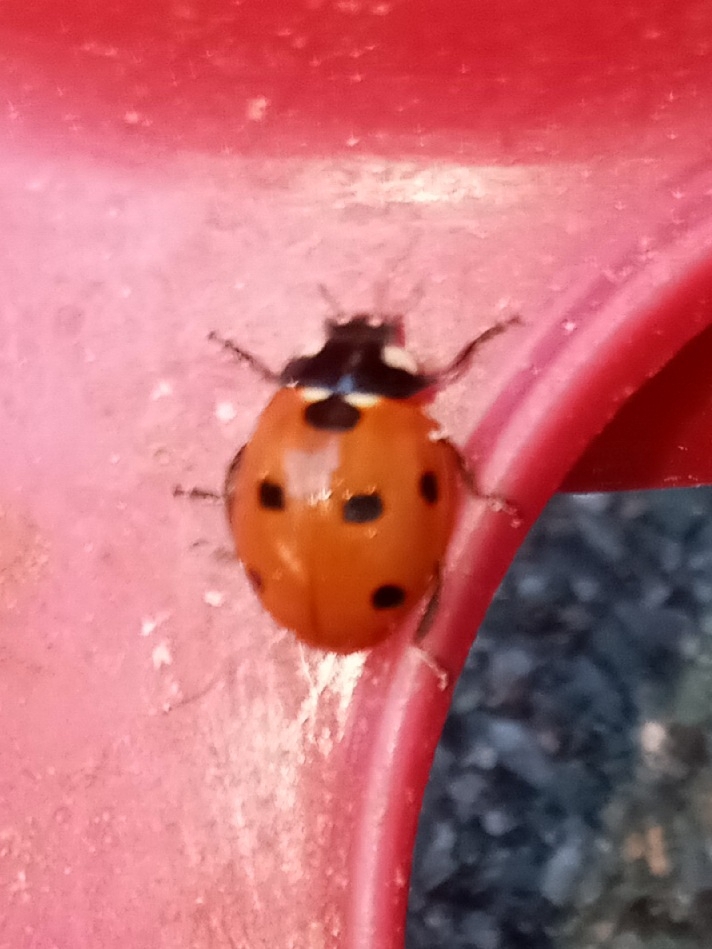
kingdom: Animalia
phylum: Arthropoda
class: Insecta
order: Coleoptera
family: Coccinellidae
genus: Coccinella
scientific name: Coccinella septempunctata
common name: Sevenspotted lady beetle
